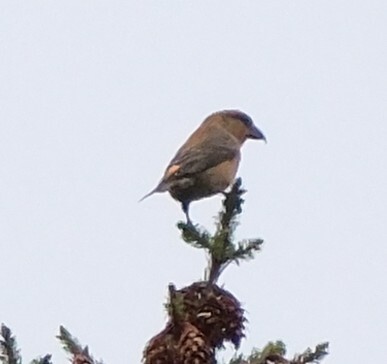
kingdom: Animalia
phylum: Chordata
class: Aves
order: Passeriformes
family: Fringillidae
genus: Loxia
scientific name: Loxia curvirostra
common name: Red crossbill
